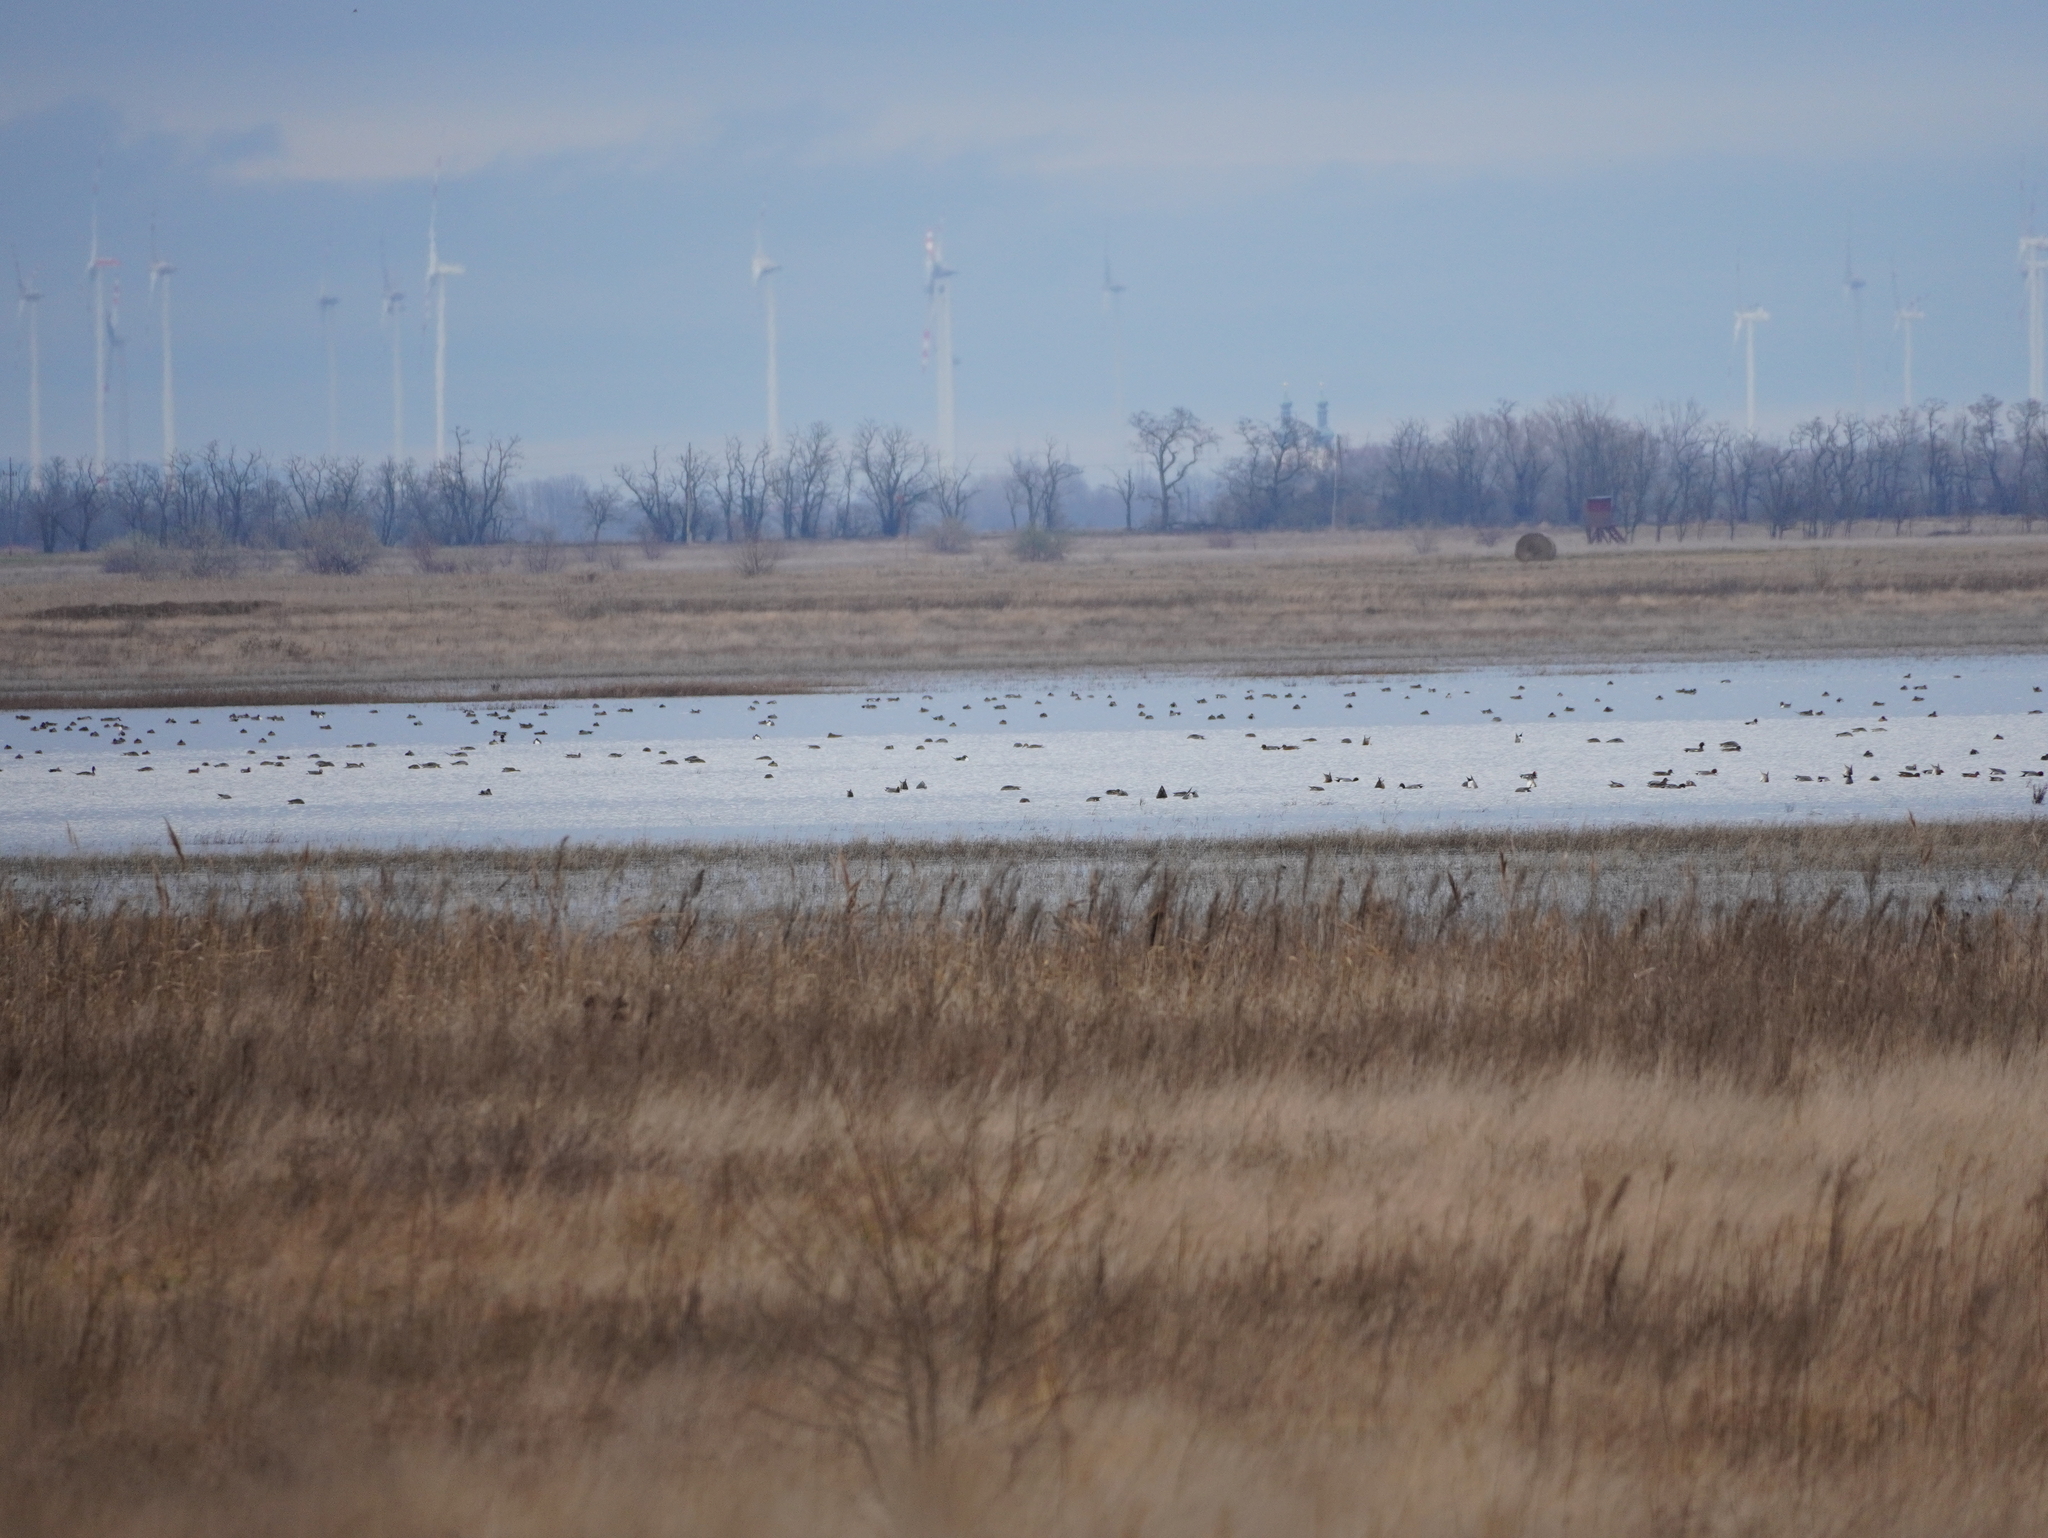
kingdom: Animalia
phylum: Chordata
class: Aves
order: Anseriformes
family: Anatidae
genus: Mareca
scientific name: Mareca penelope
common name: Eurasian wigeon
